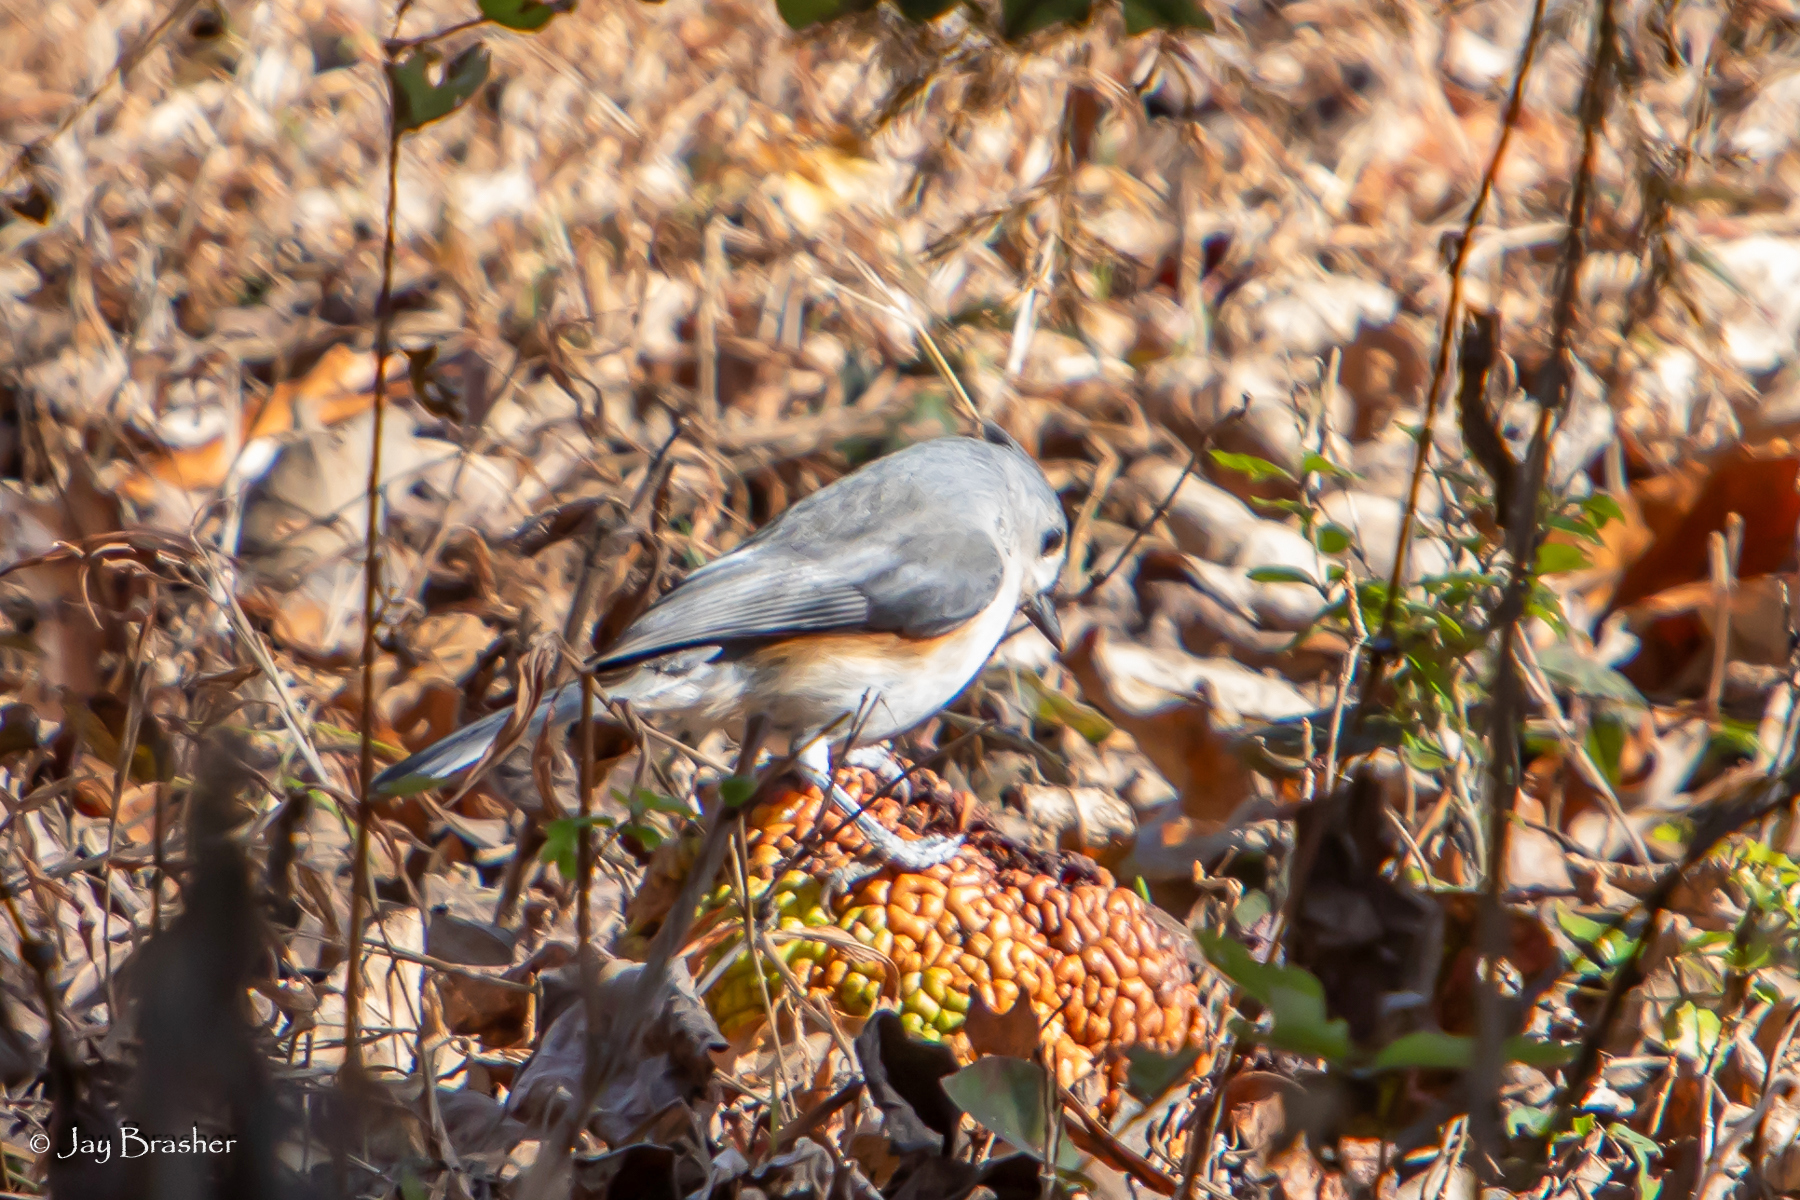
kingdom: Animalia
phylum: Chordata
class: Aves
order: Passeriformes
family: Paridae
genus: Baeolophus
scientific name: Baeolophus bicolor
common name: Tufted titmouse
